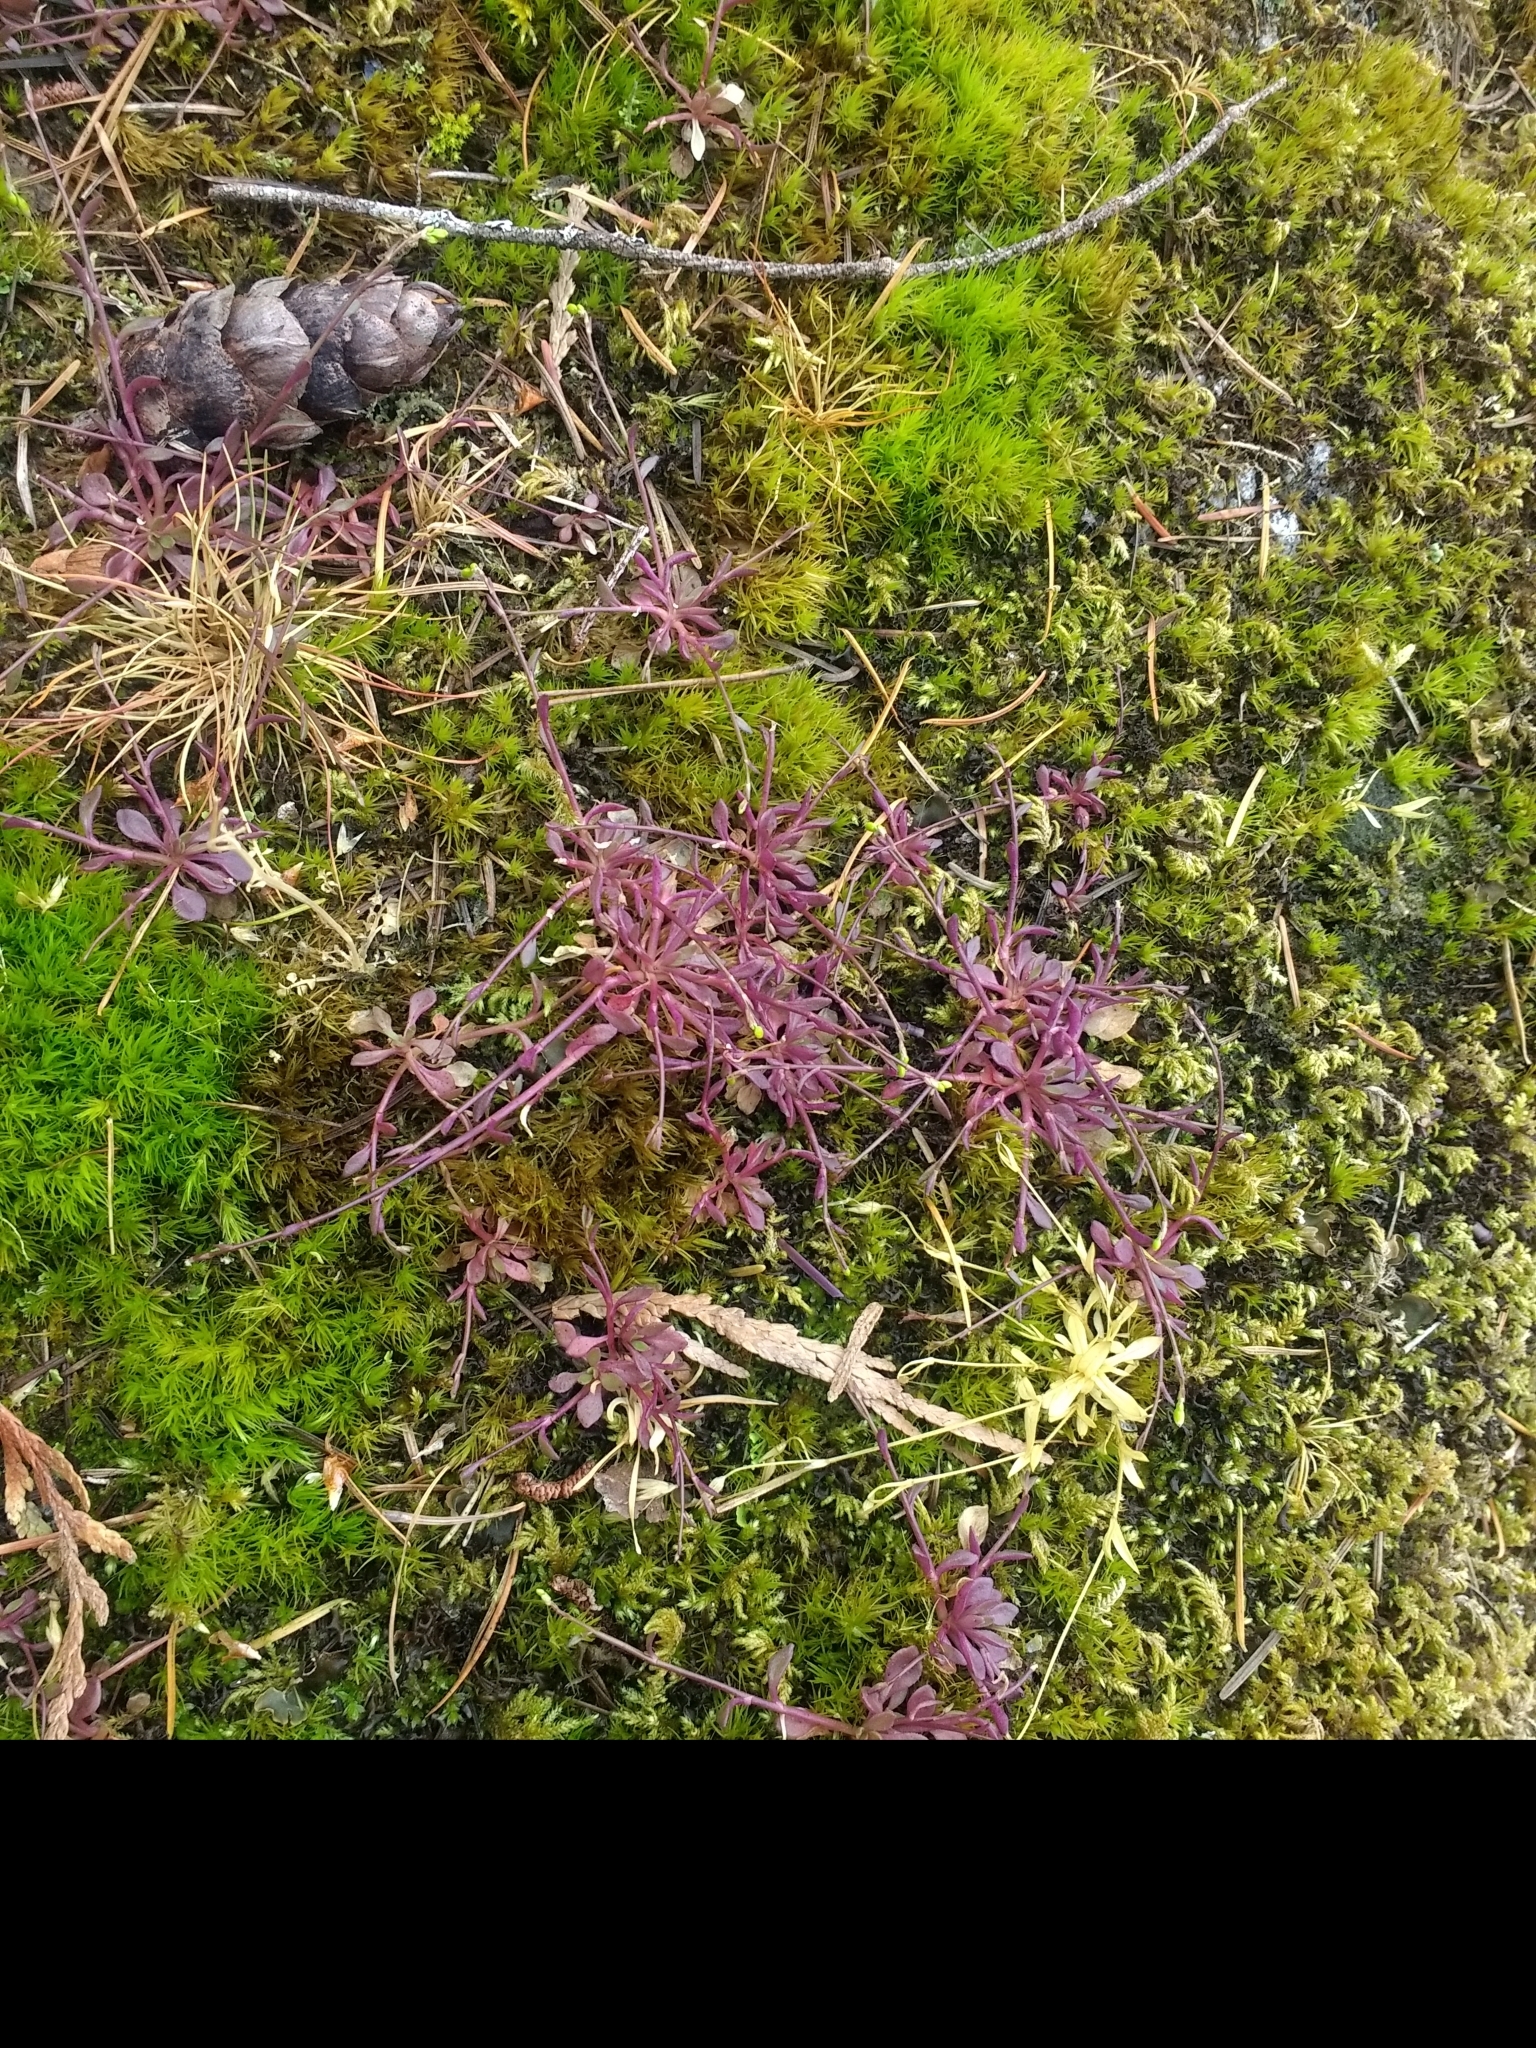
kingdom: Plantae
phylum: Tracheophyta
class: Magnoliopsida
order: Caryophyllales
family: Montiaceae
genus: Montia
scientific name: Montia parvifolia
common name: Small-leaved blinks
